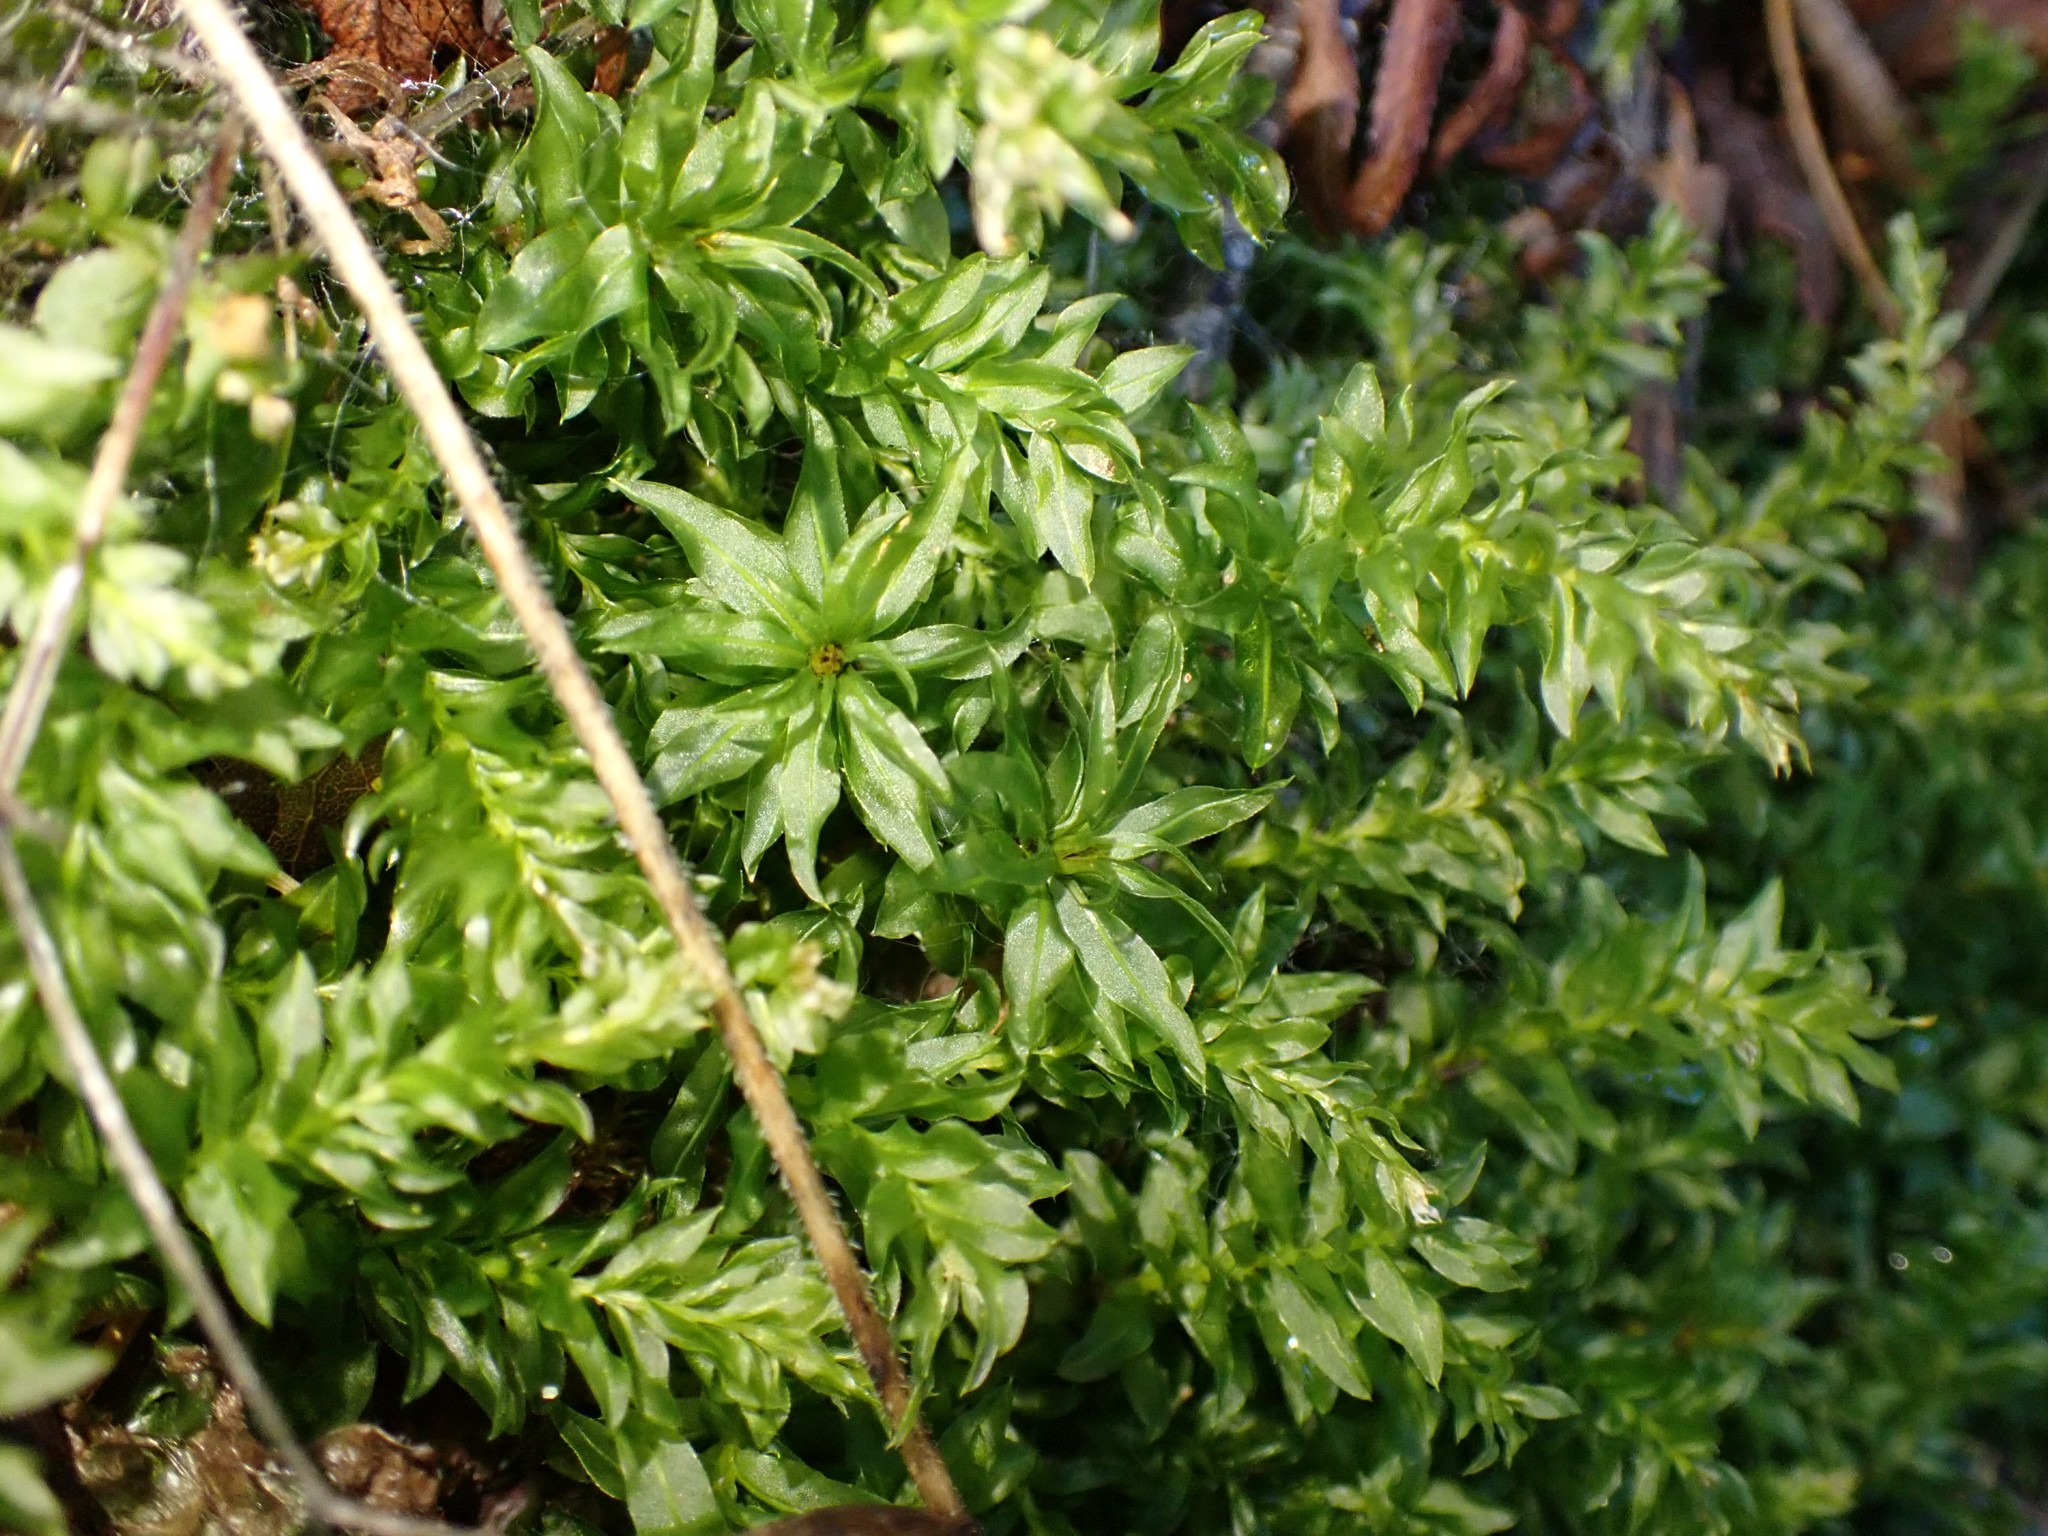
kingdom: Plantae
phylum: Bryophyta
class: Bryopsida
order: Bryales
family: Mniaceae
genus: Plagiomnium
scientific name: Plagiomnium insigne
